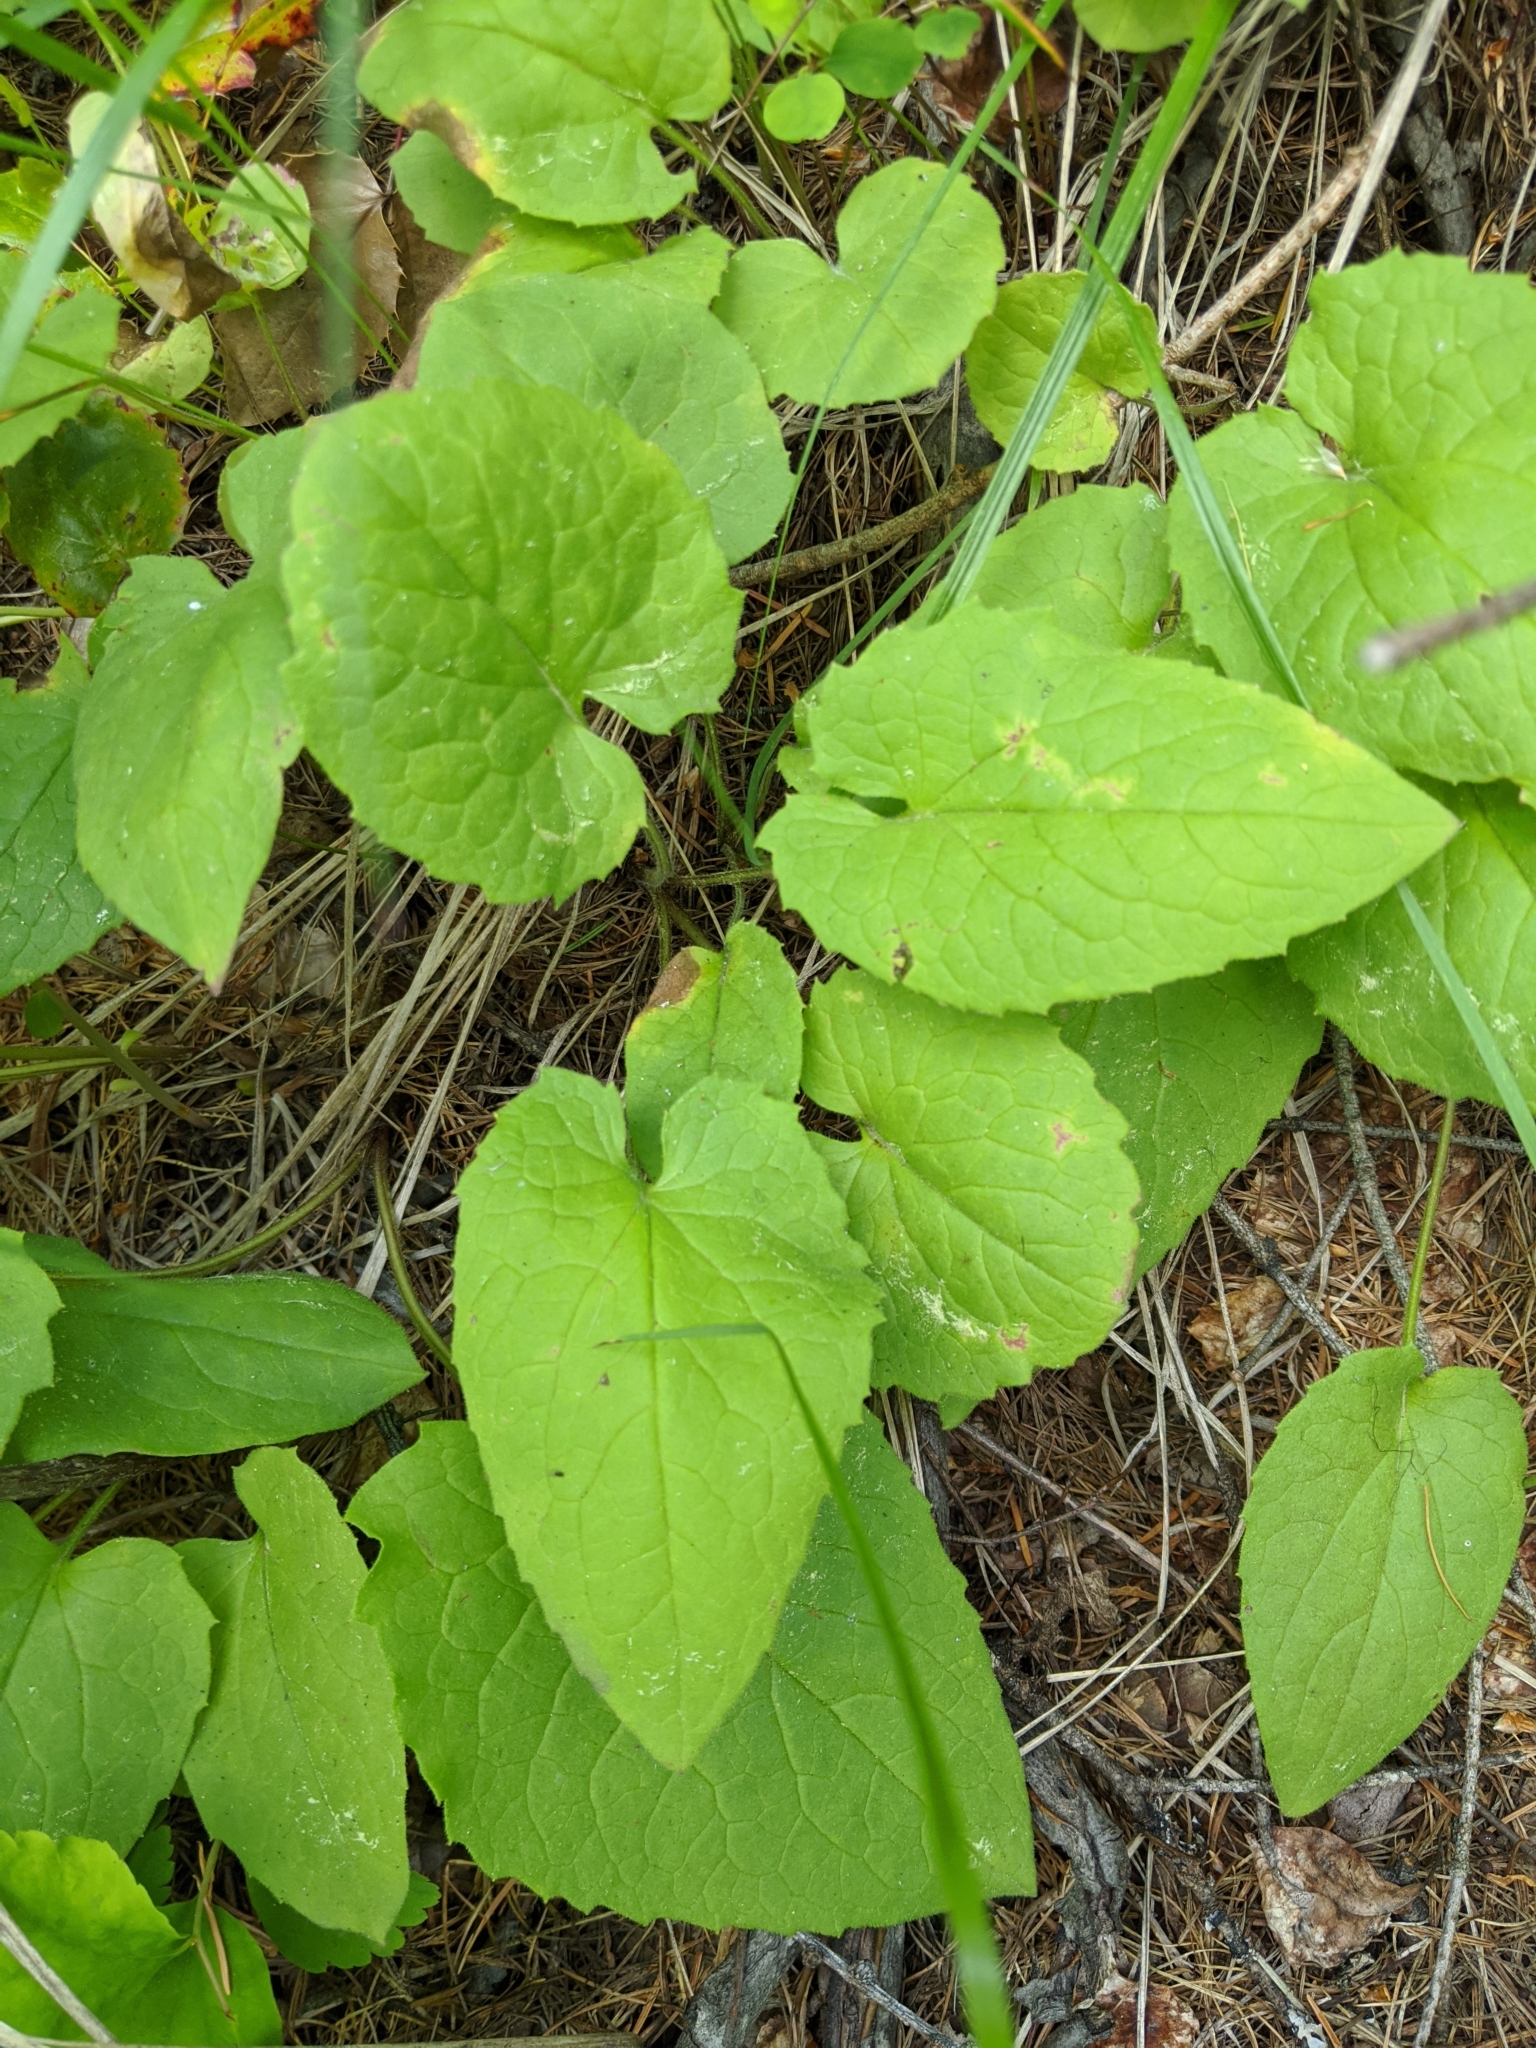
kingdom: Plantae
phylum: Tracheophyta
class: Magnoliopsida
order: Asterales
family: Asteraceae
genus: Arnica
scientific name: Arnica cordifolia
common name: Heart-leaf arnica
